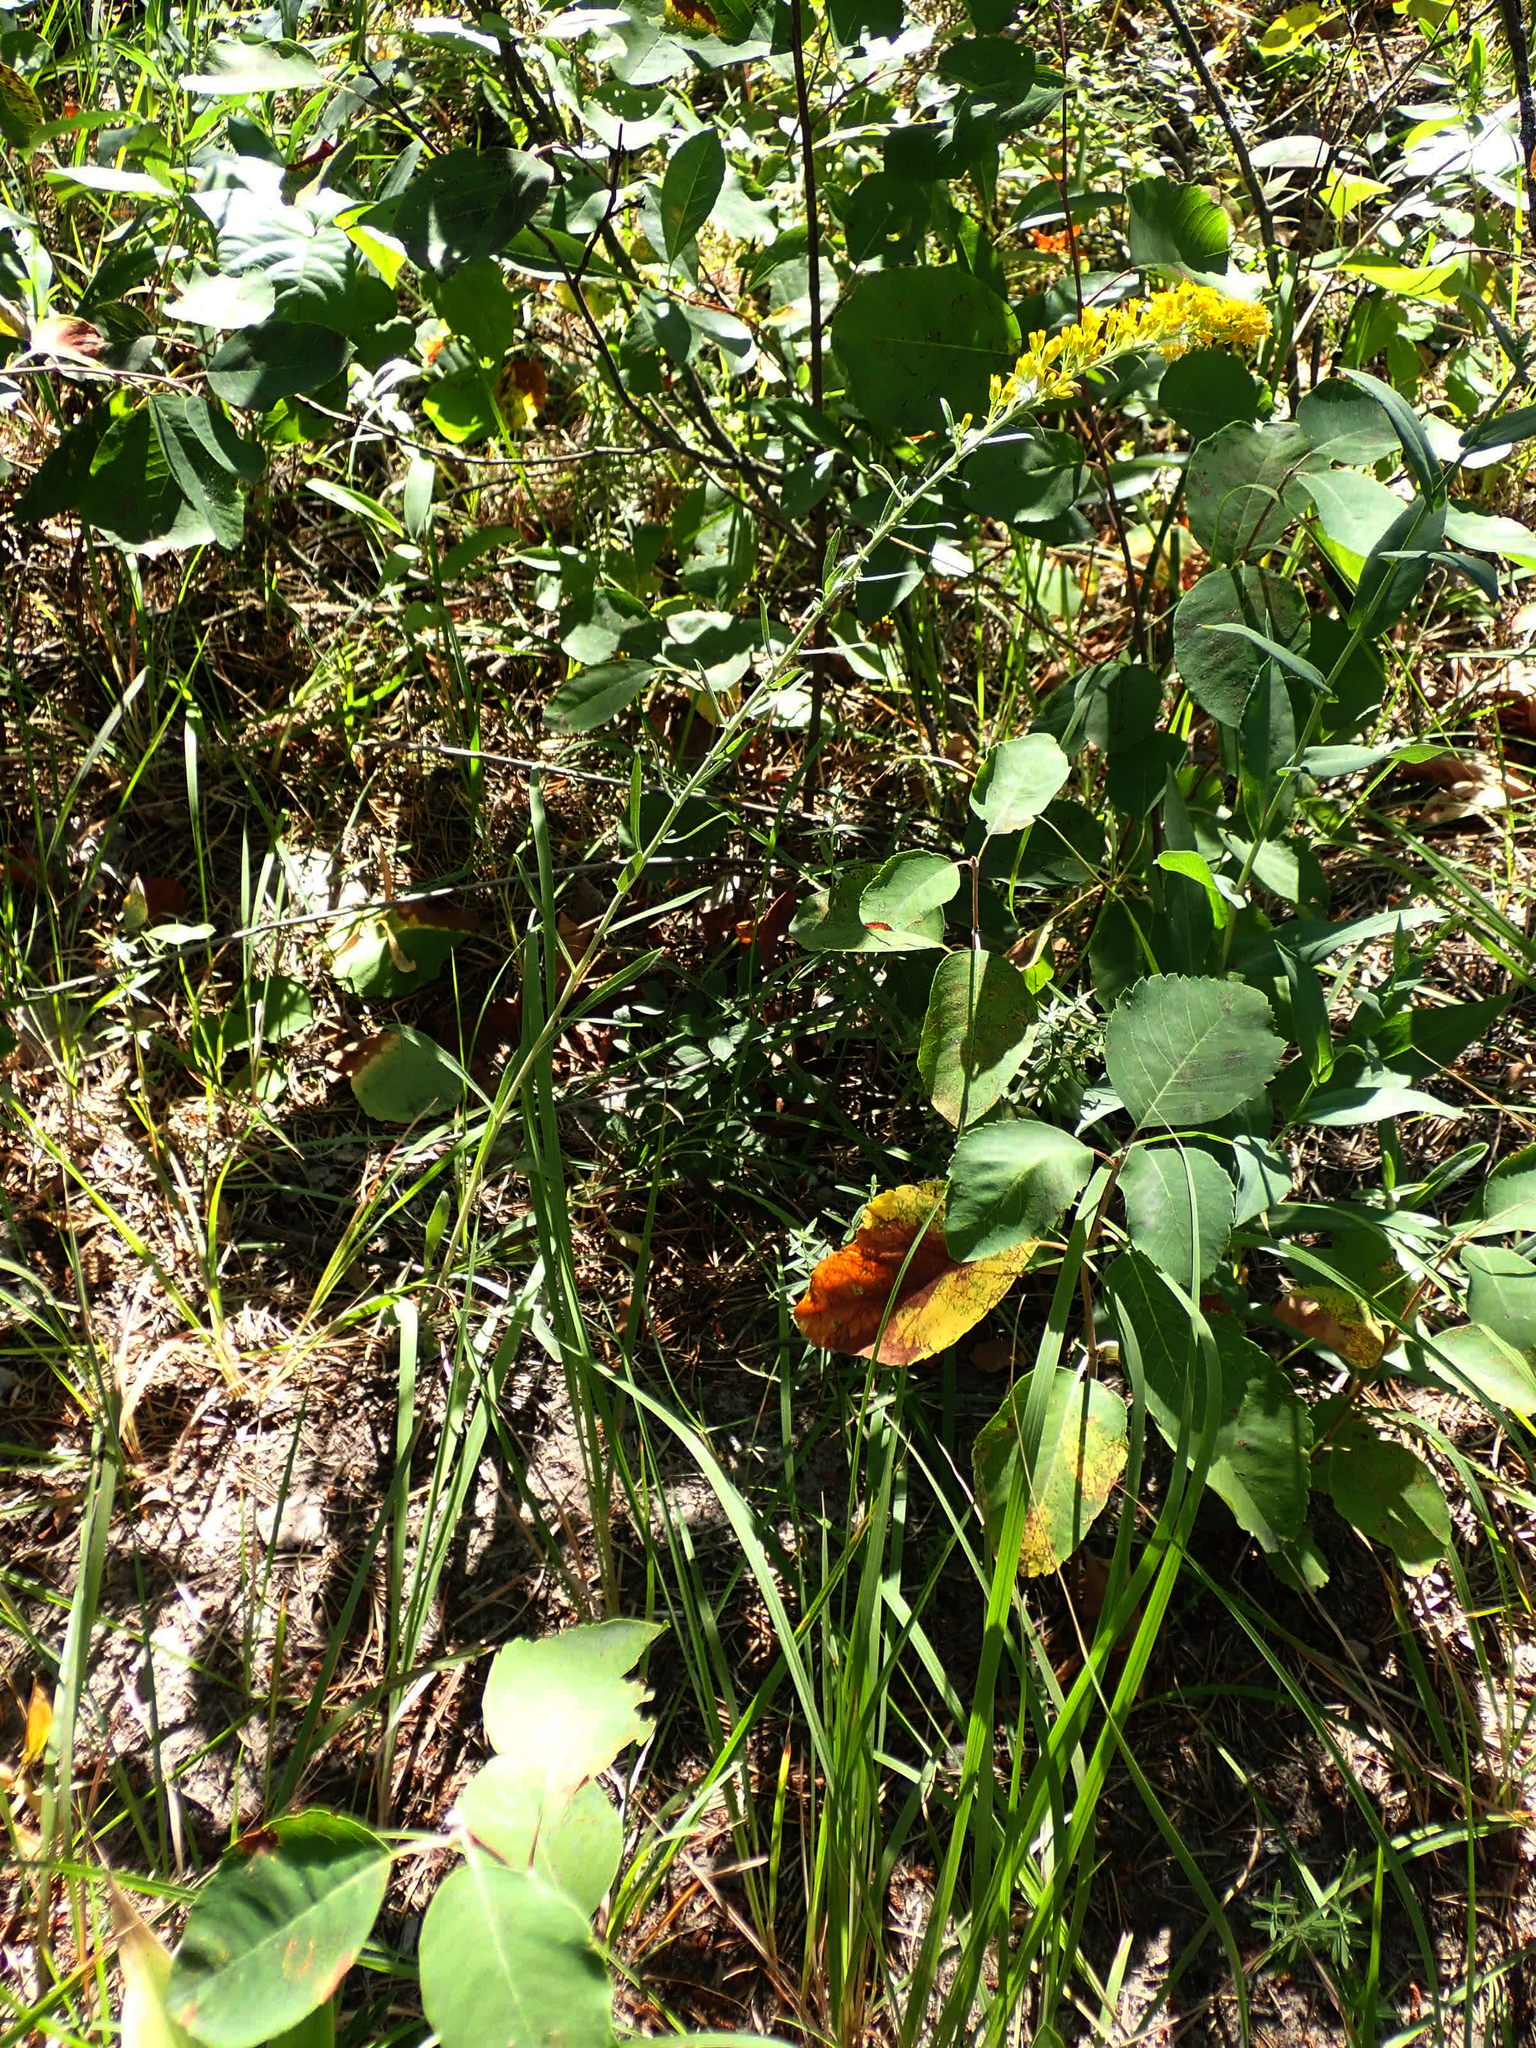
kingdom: Plantae
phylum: Tracheophyta
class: Magnoliopsida
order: Asterales
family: Asteraceae
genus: Solidago
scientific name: Solidago nemoralis
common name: Grey goldenrod
